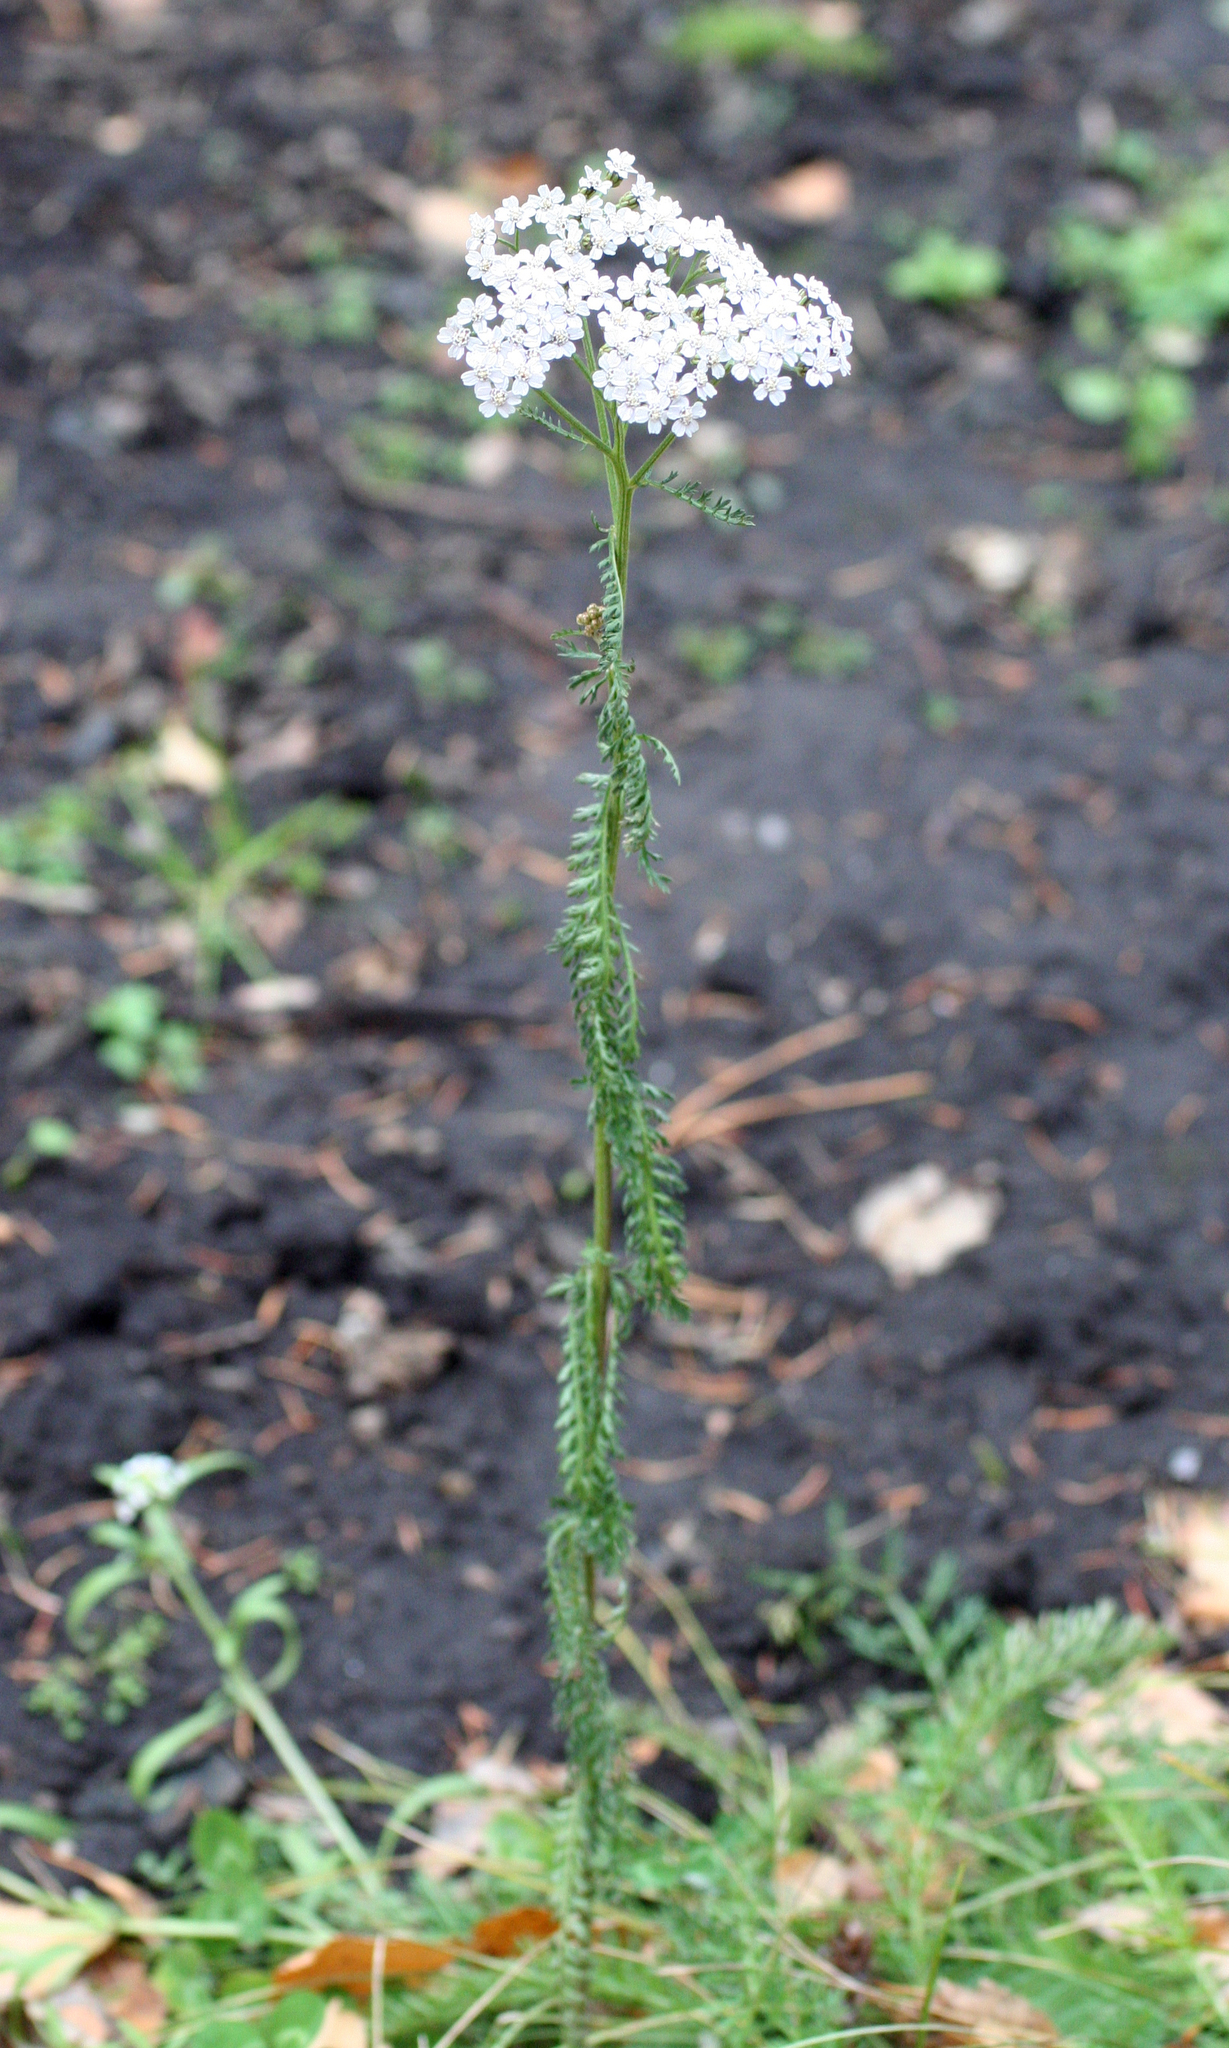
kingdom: Plantae
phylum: Tracheophyta
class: Magnoliopsida
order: Asterales
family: Asteraceae
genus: Achillea
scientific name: Achillea millefolium
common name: Yarrow
